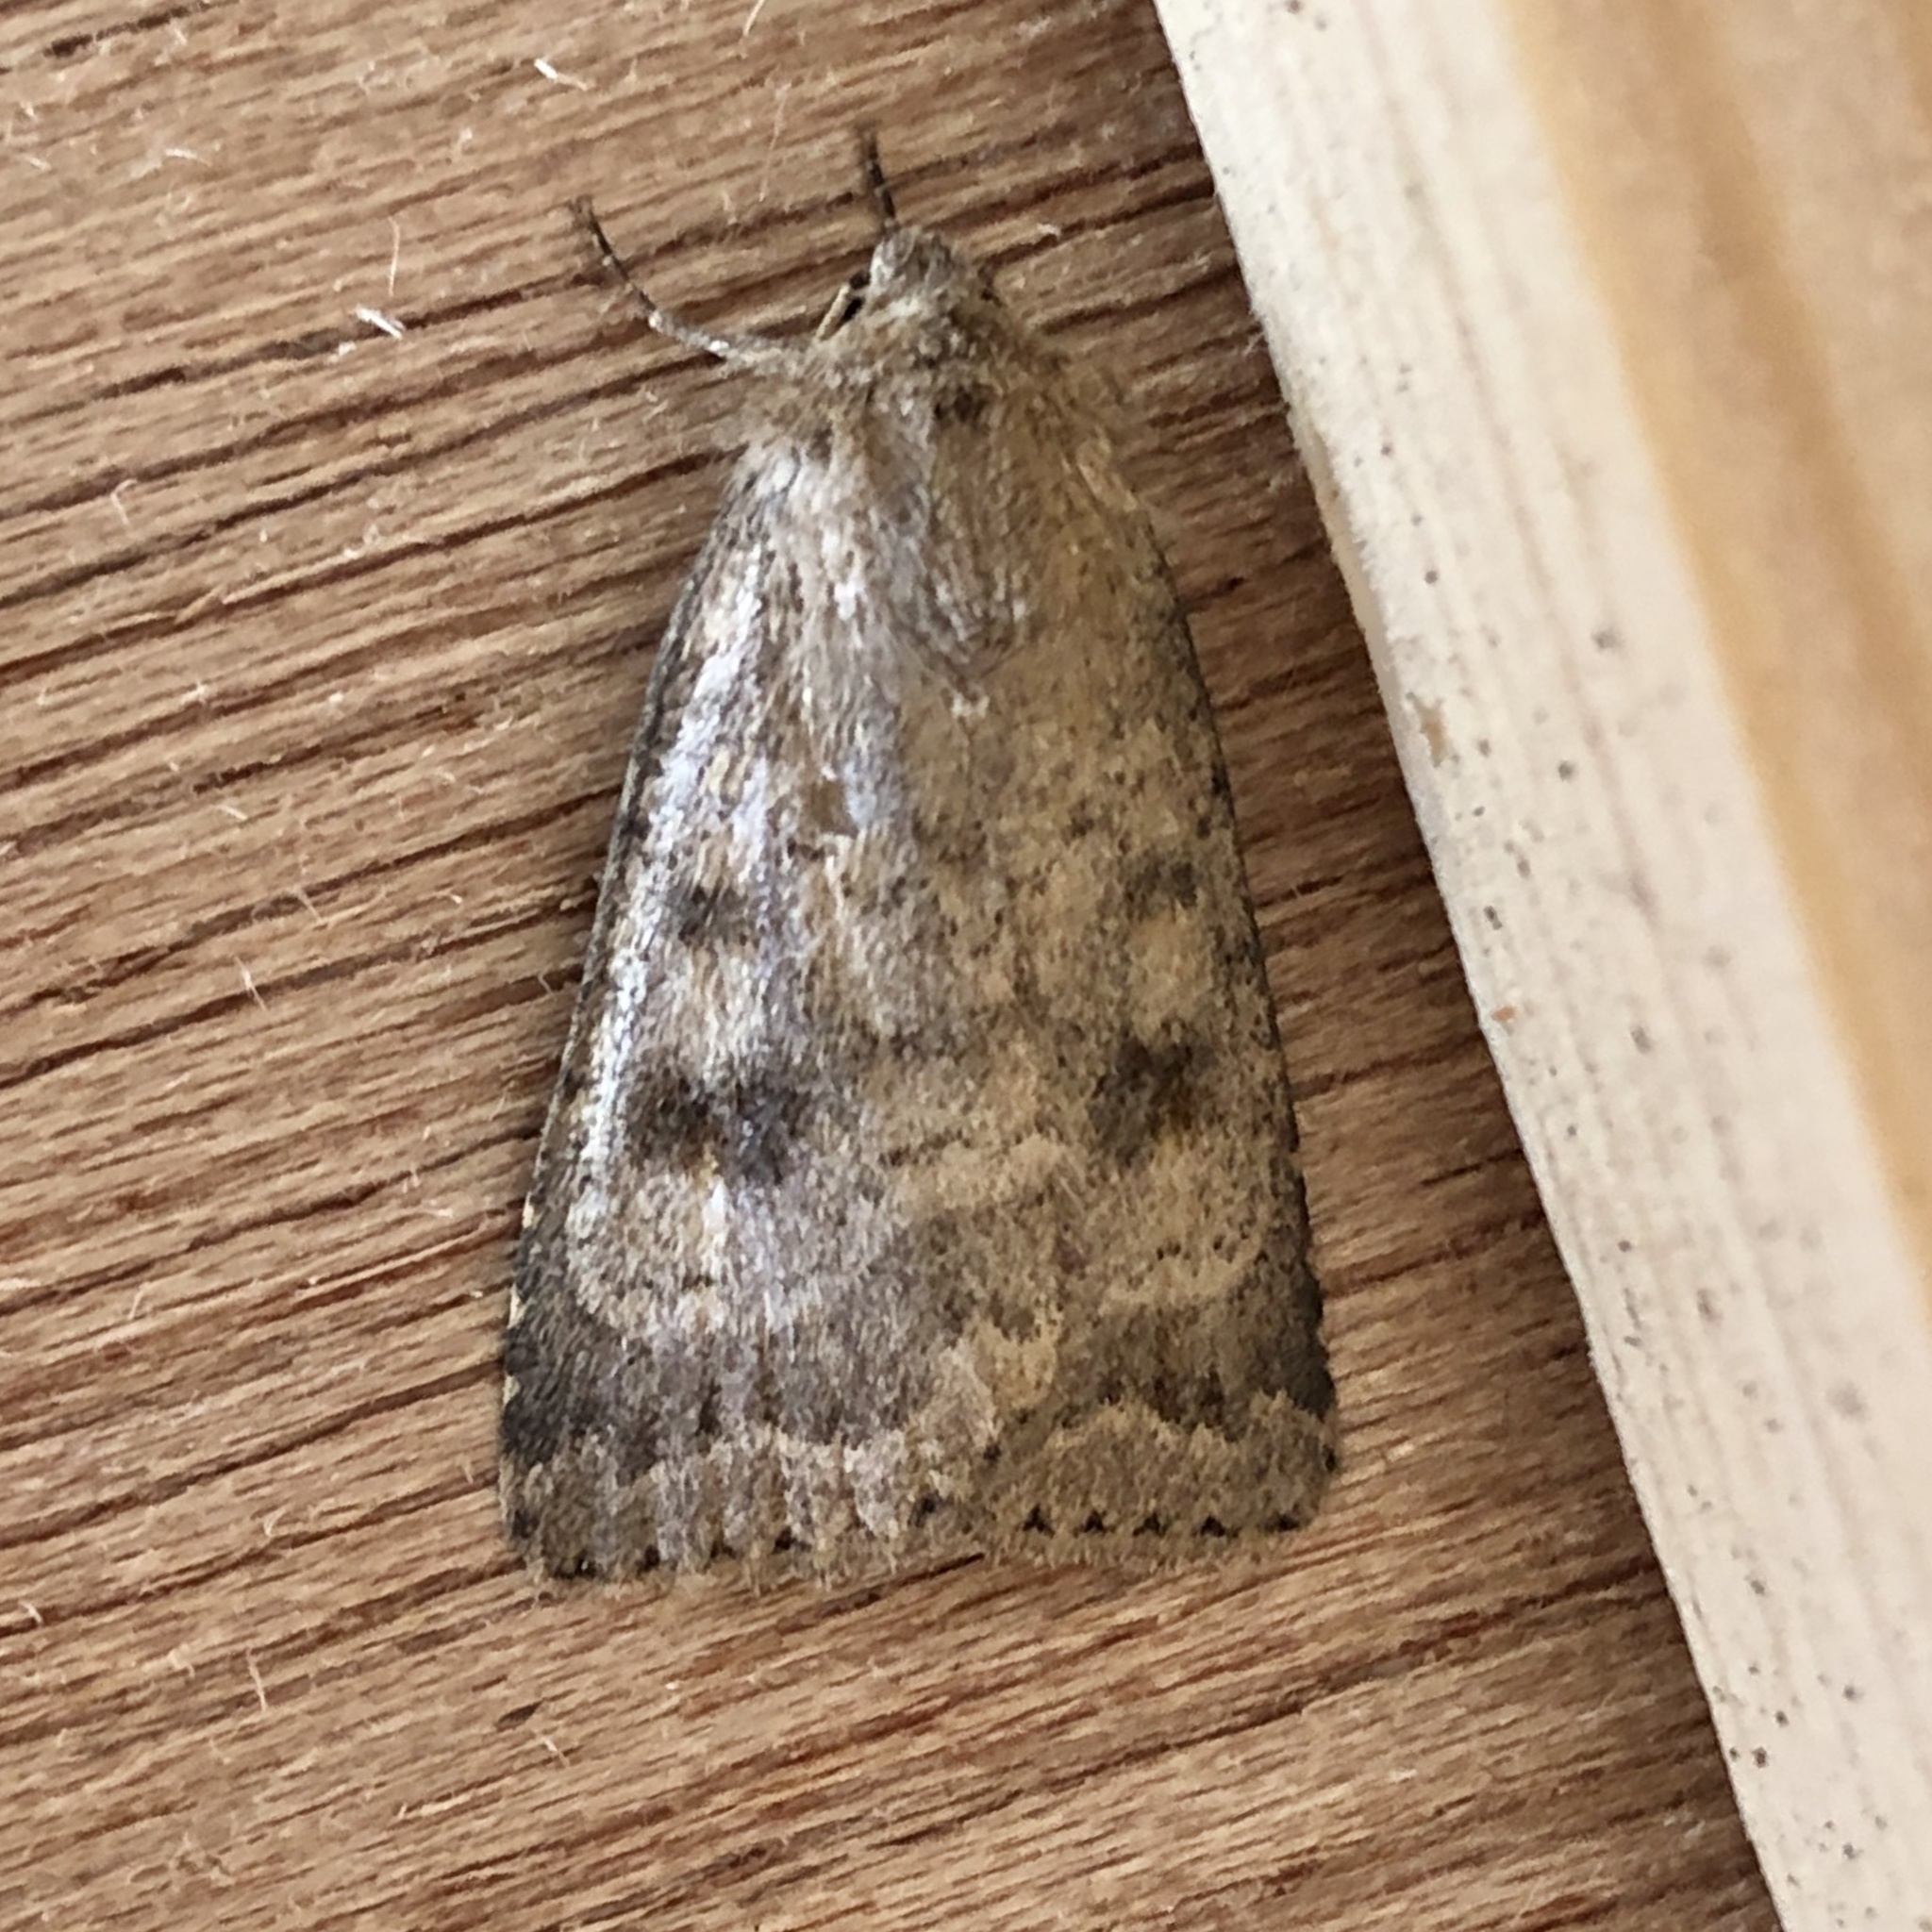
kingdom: Animalia
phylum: Arthropoda
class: Insecta
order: Lepidoptera
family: Noctuidae
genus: Caradrina
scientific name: Caradrina morpheus
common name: Mottled rustic
